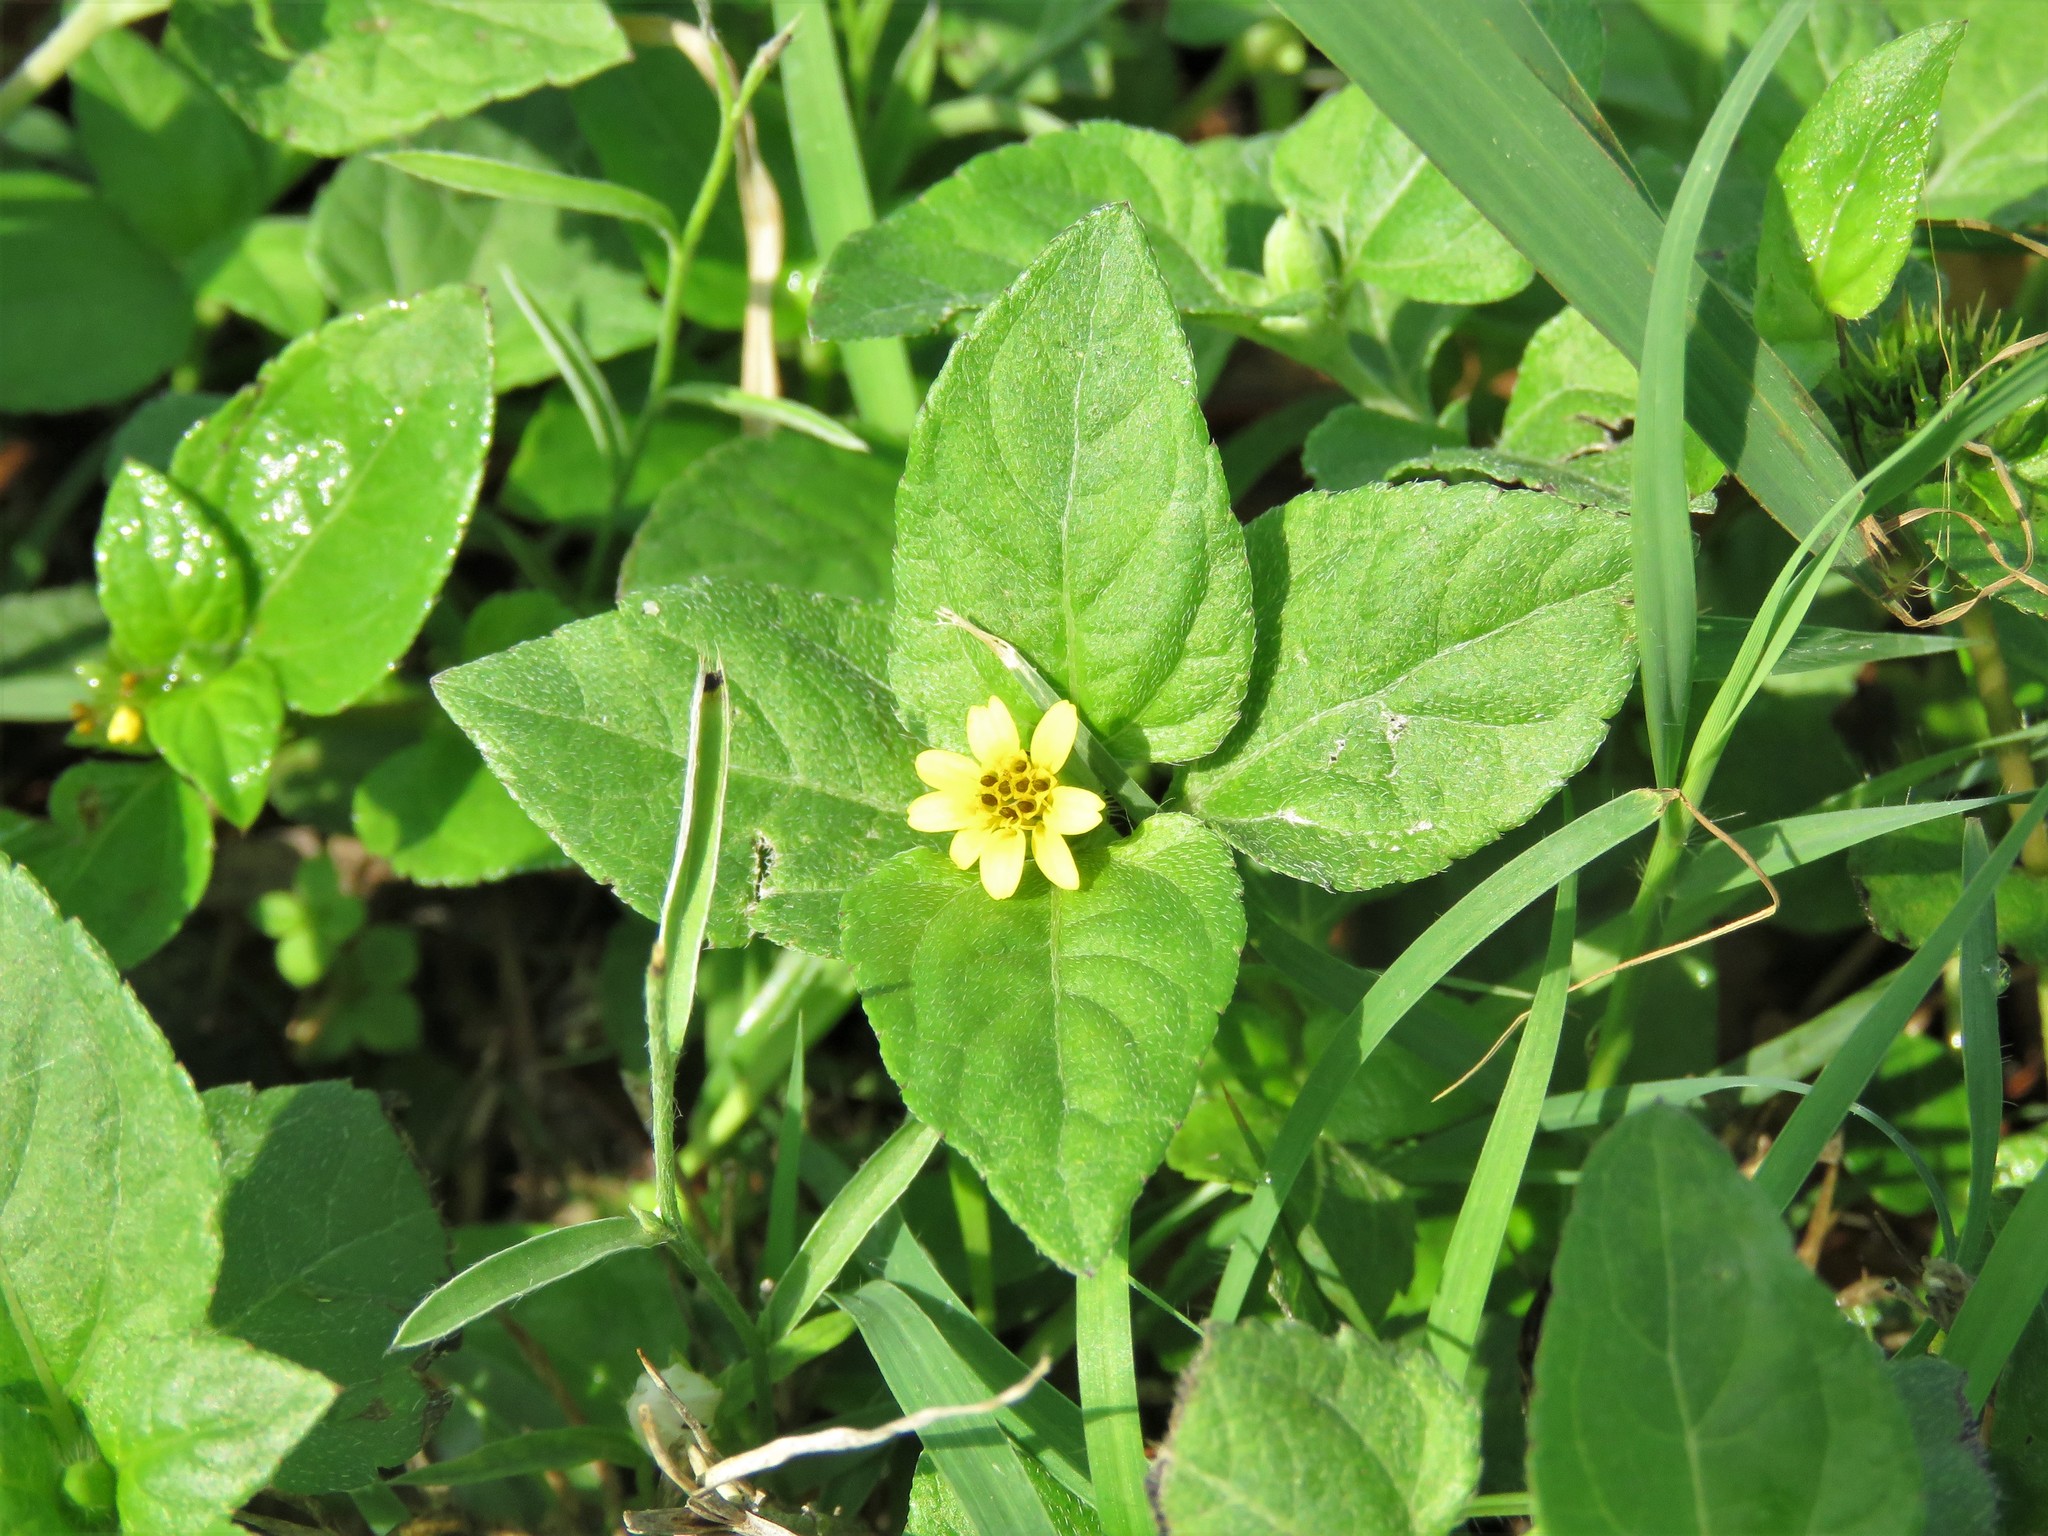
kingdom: Plantae
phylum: Tracheophyta
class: Magnoliopsida
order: Asterales
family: Asteraceae
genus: Calyptocarpus
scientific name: Calyptocarpus vialis
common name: Straggler daisy
